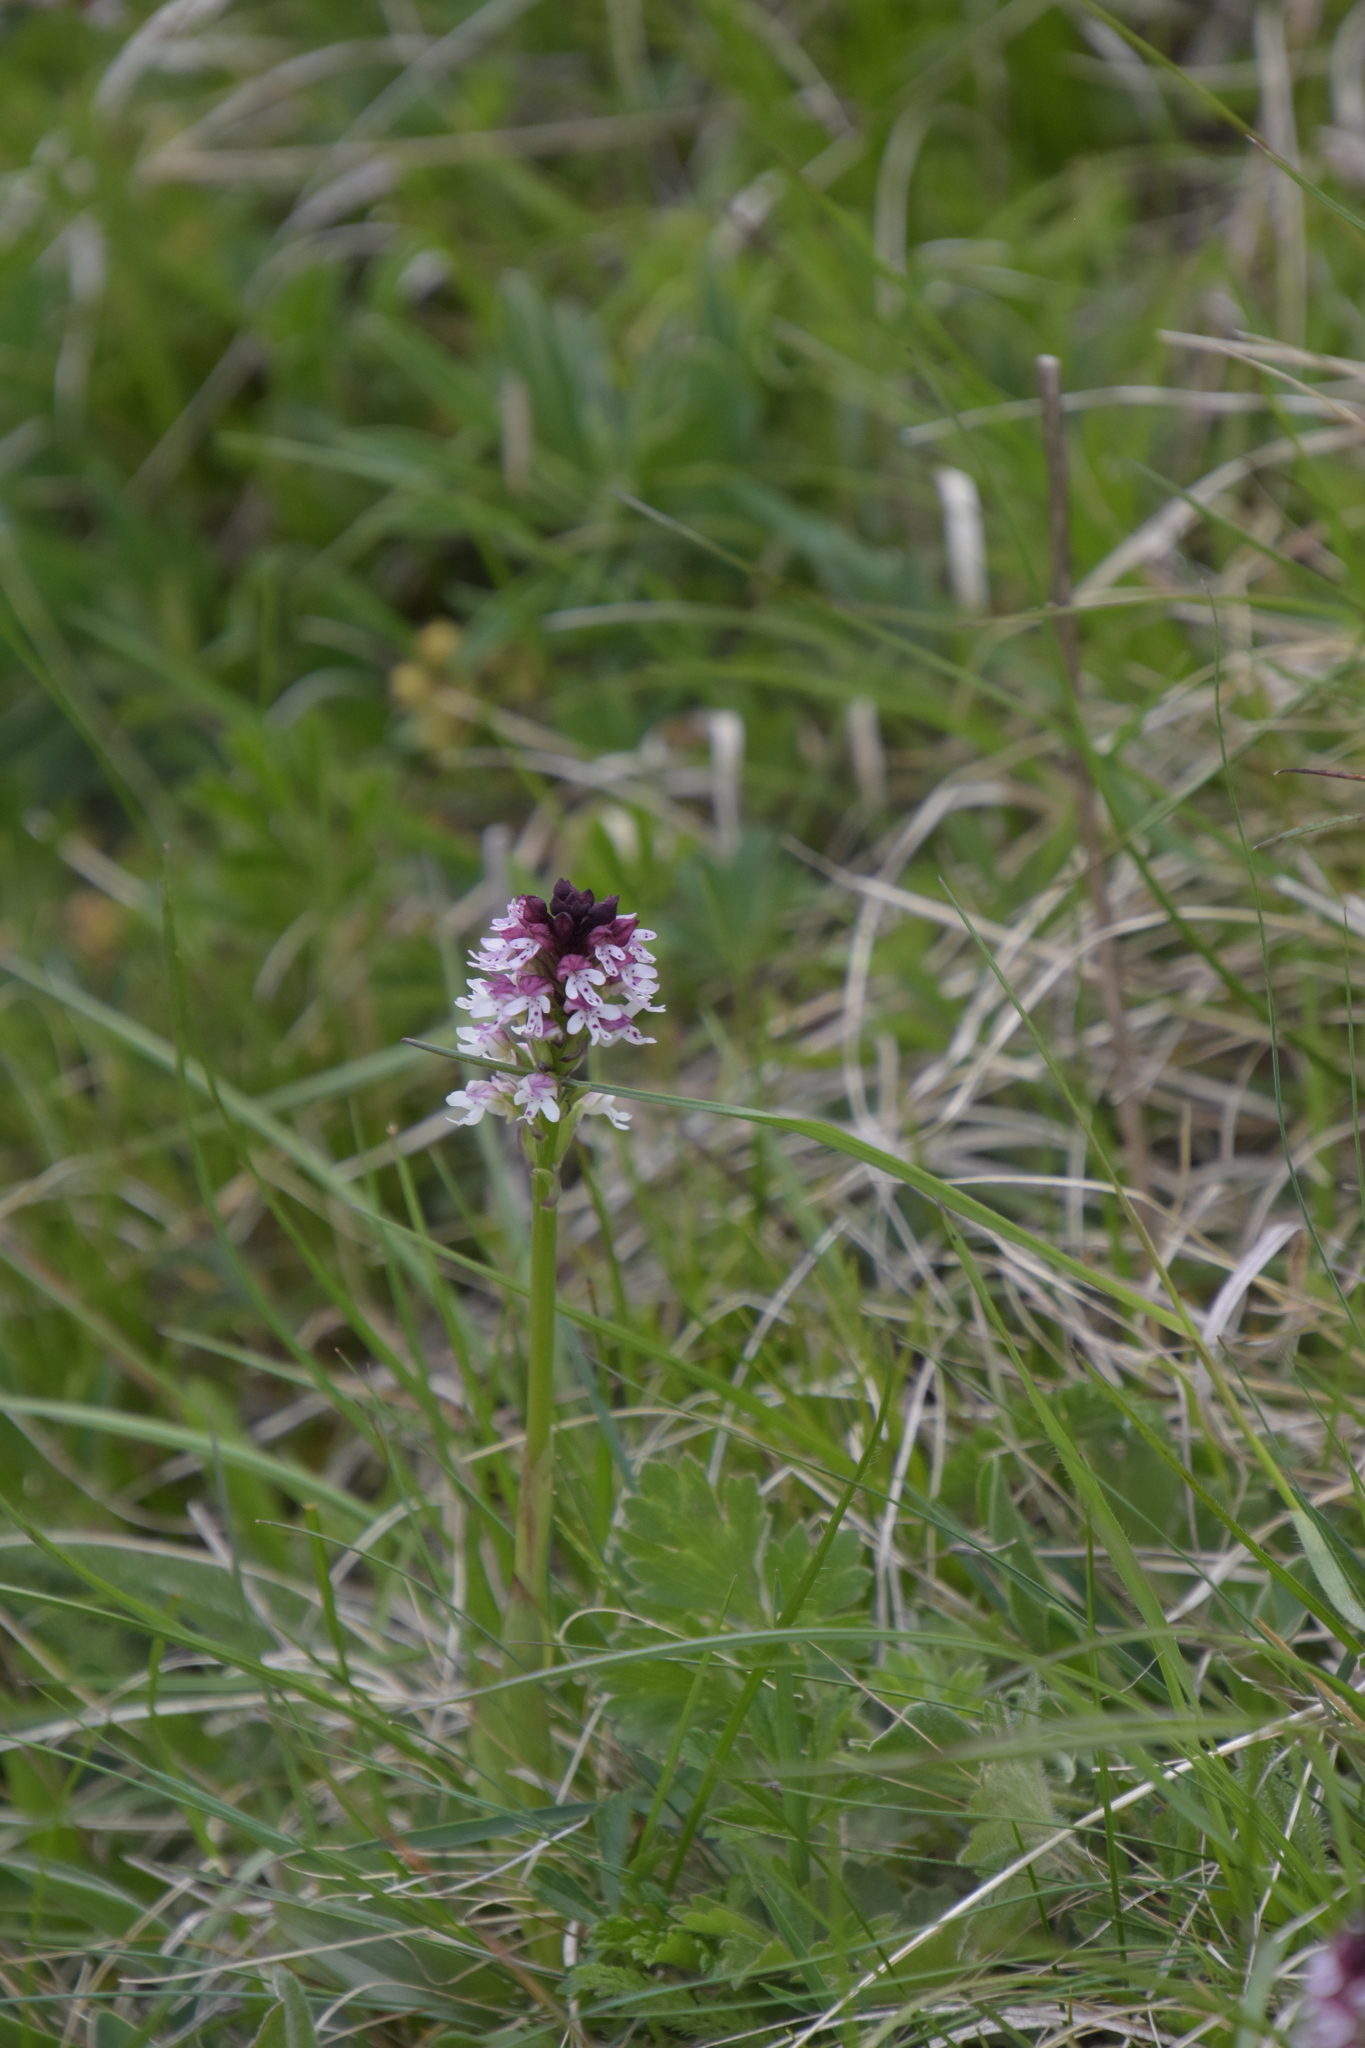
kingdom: Plantae
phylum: Tracheophyta
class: Liliopsida
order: Asparagales
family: Orchidaceae
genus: Neotinea
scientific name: Neotinea ustulata
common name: Burnt orchid
